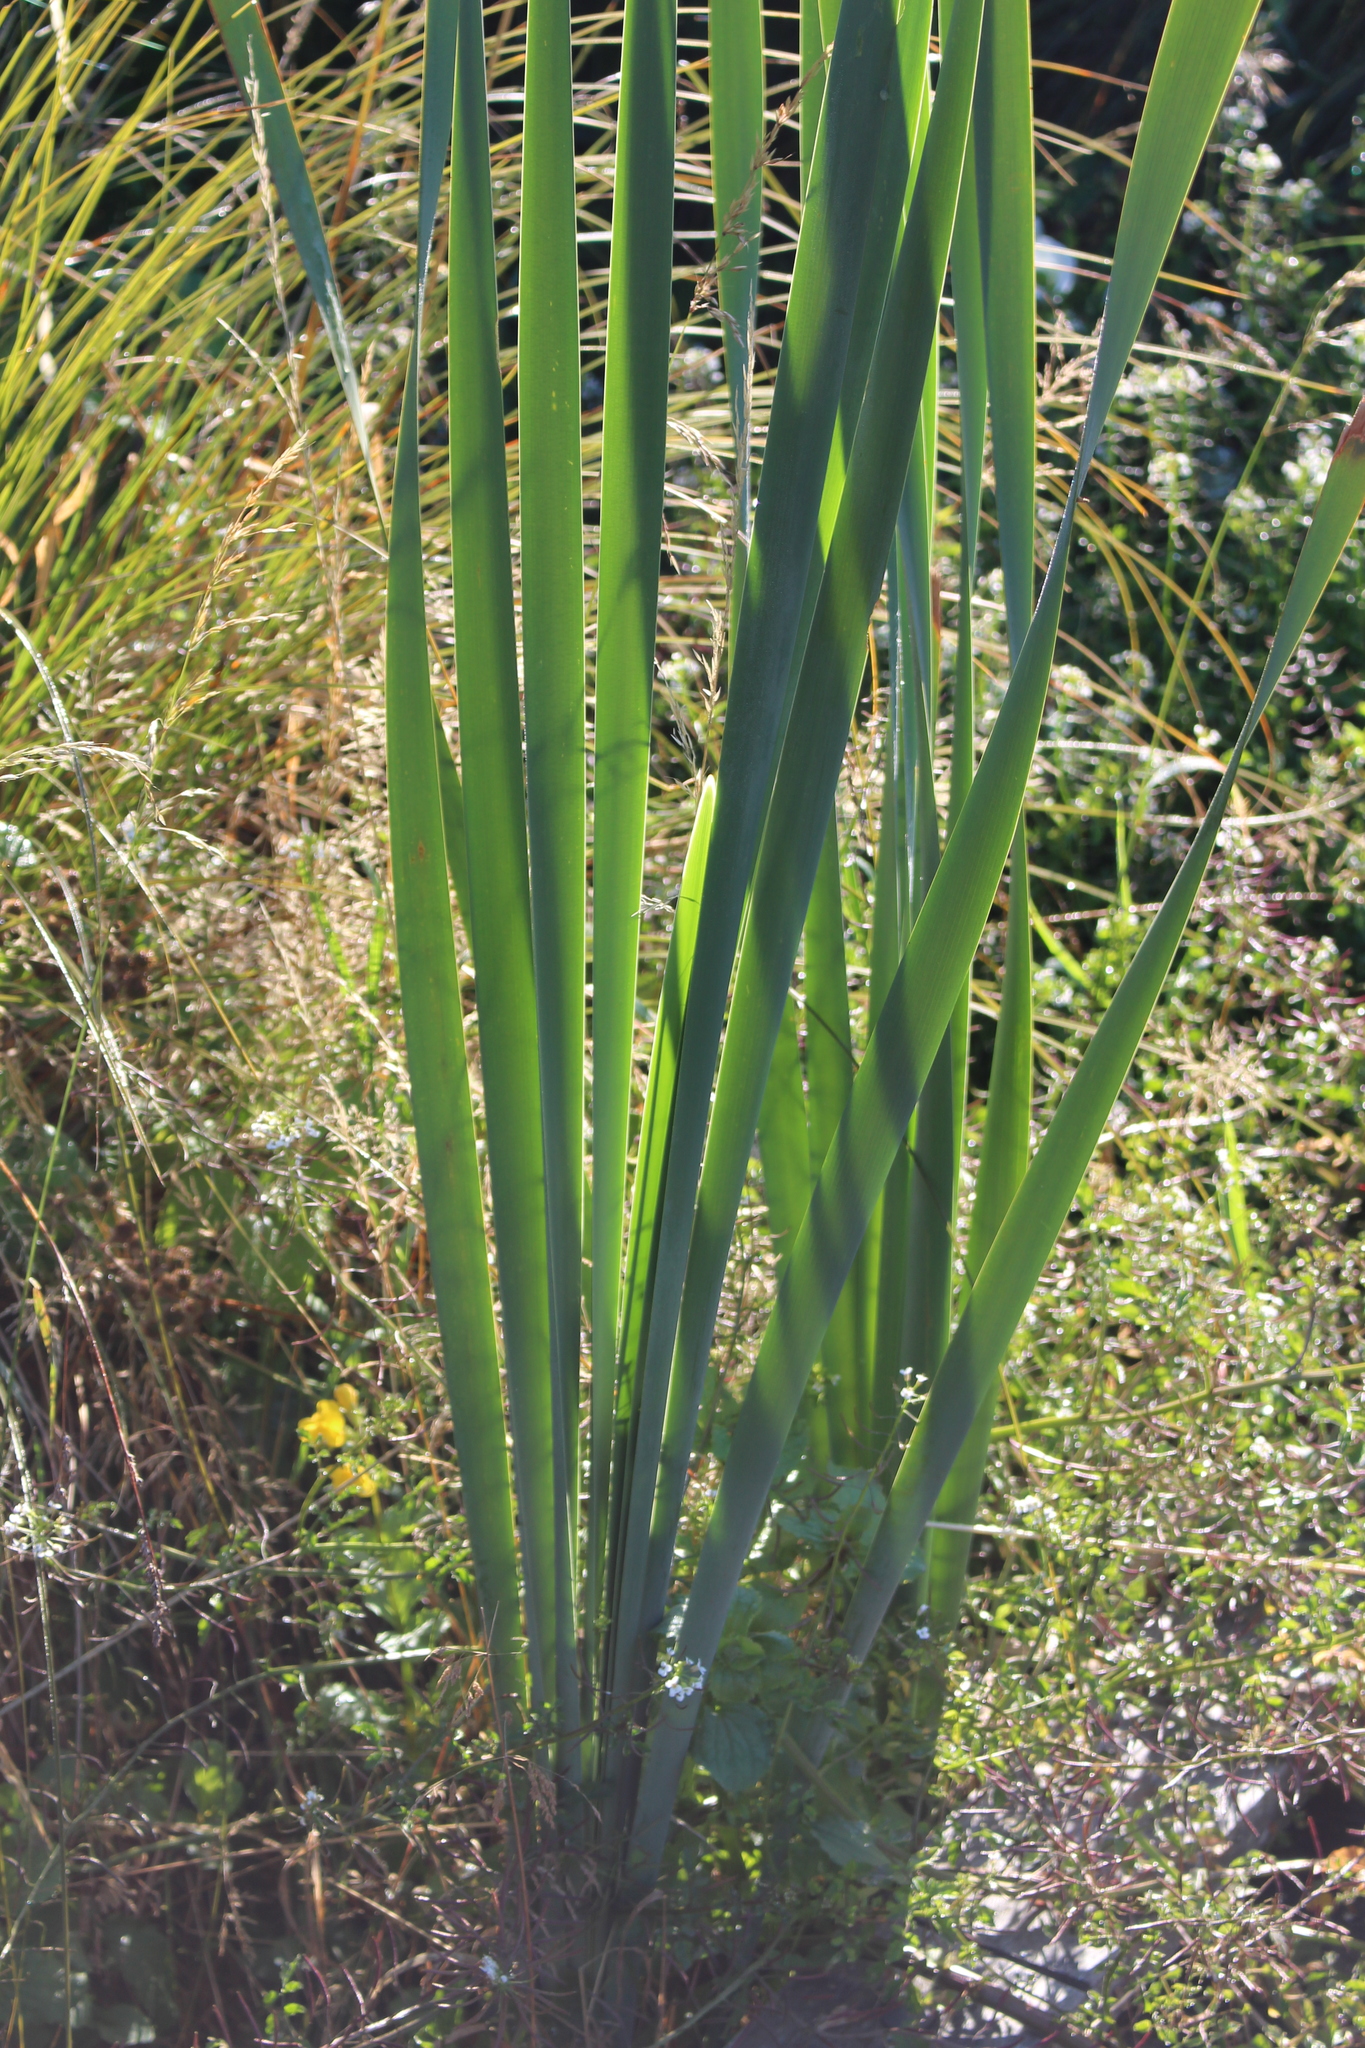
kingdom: Plantae
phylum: Tracheophyta
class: Liliopsida
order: Poales
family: Typhaceae
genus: Typha
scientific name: Typha orientalis
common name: Bullrush
